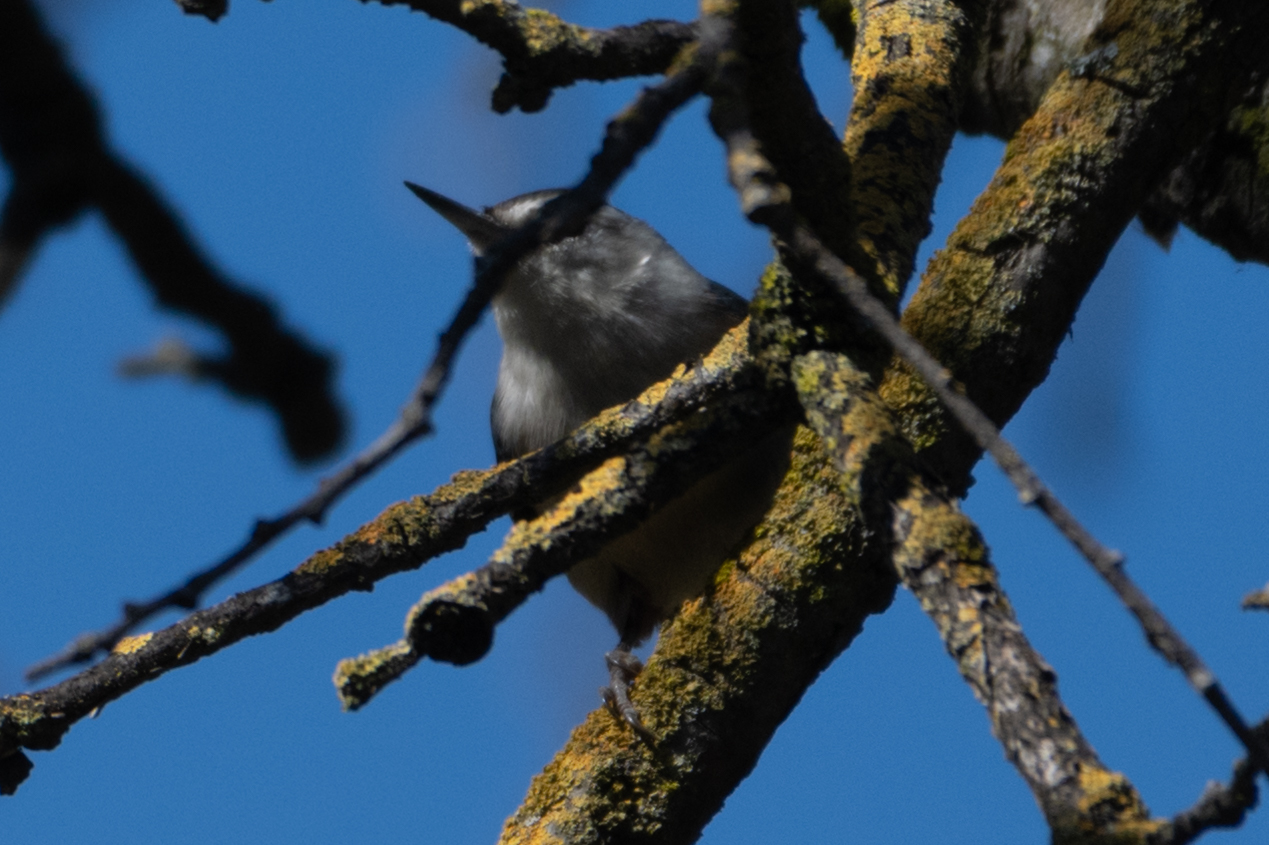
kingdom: Animalia
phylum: Chordata
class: Aves
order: Passeriformes
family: Sittidae
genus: Sitta
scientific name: Sitta carolinensis
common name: White-breasted nuthatch
